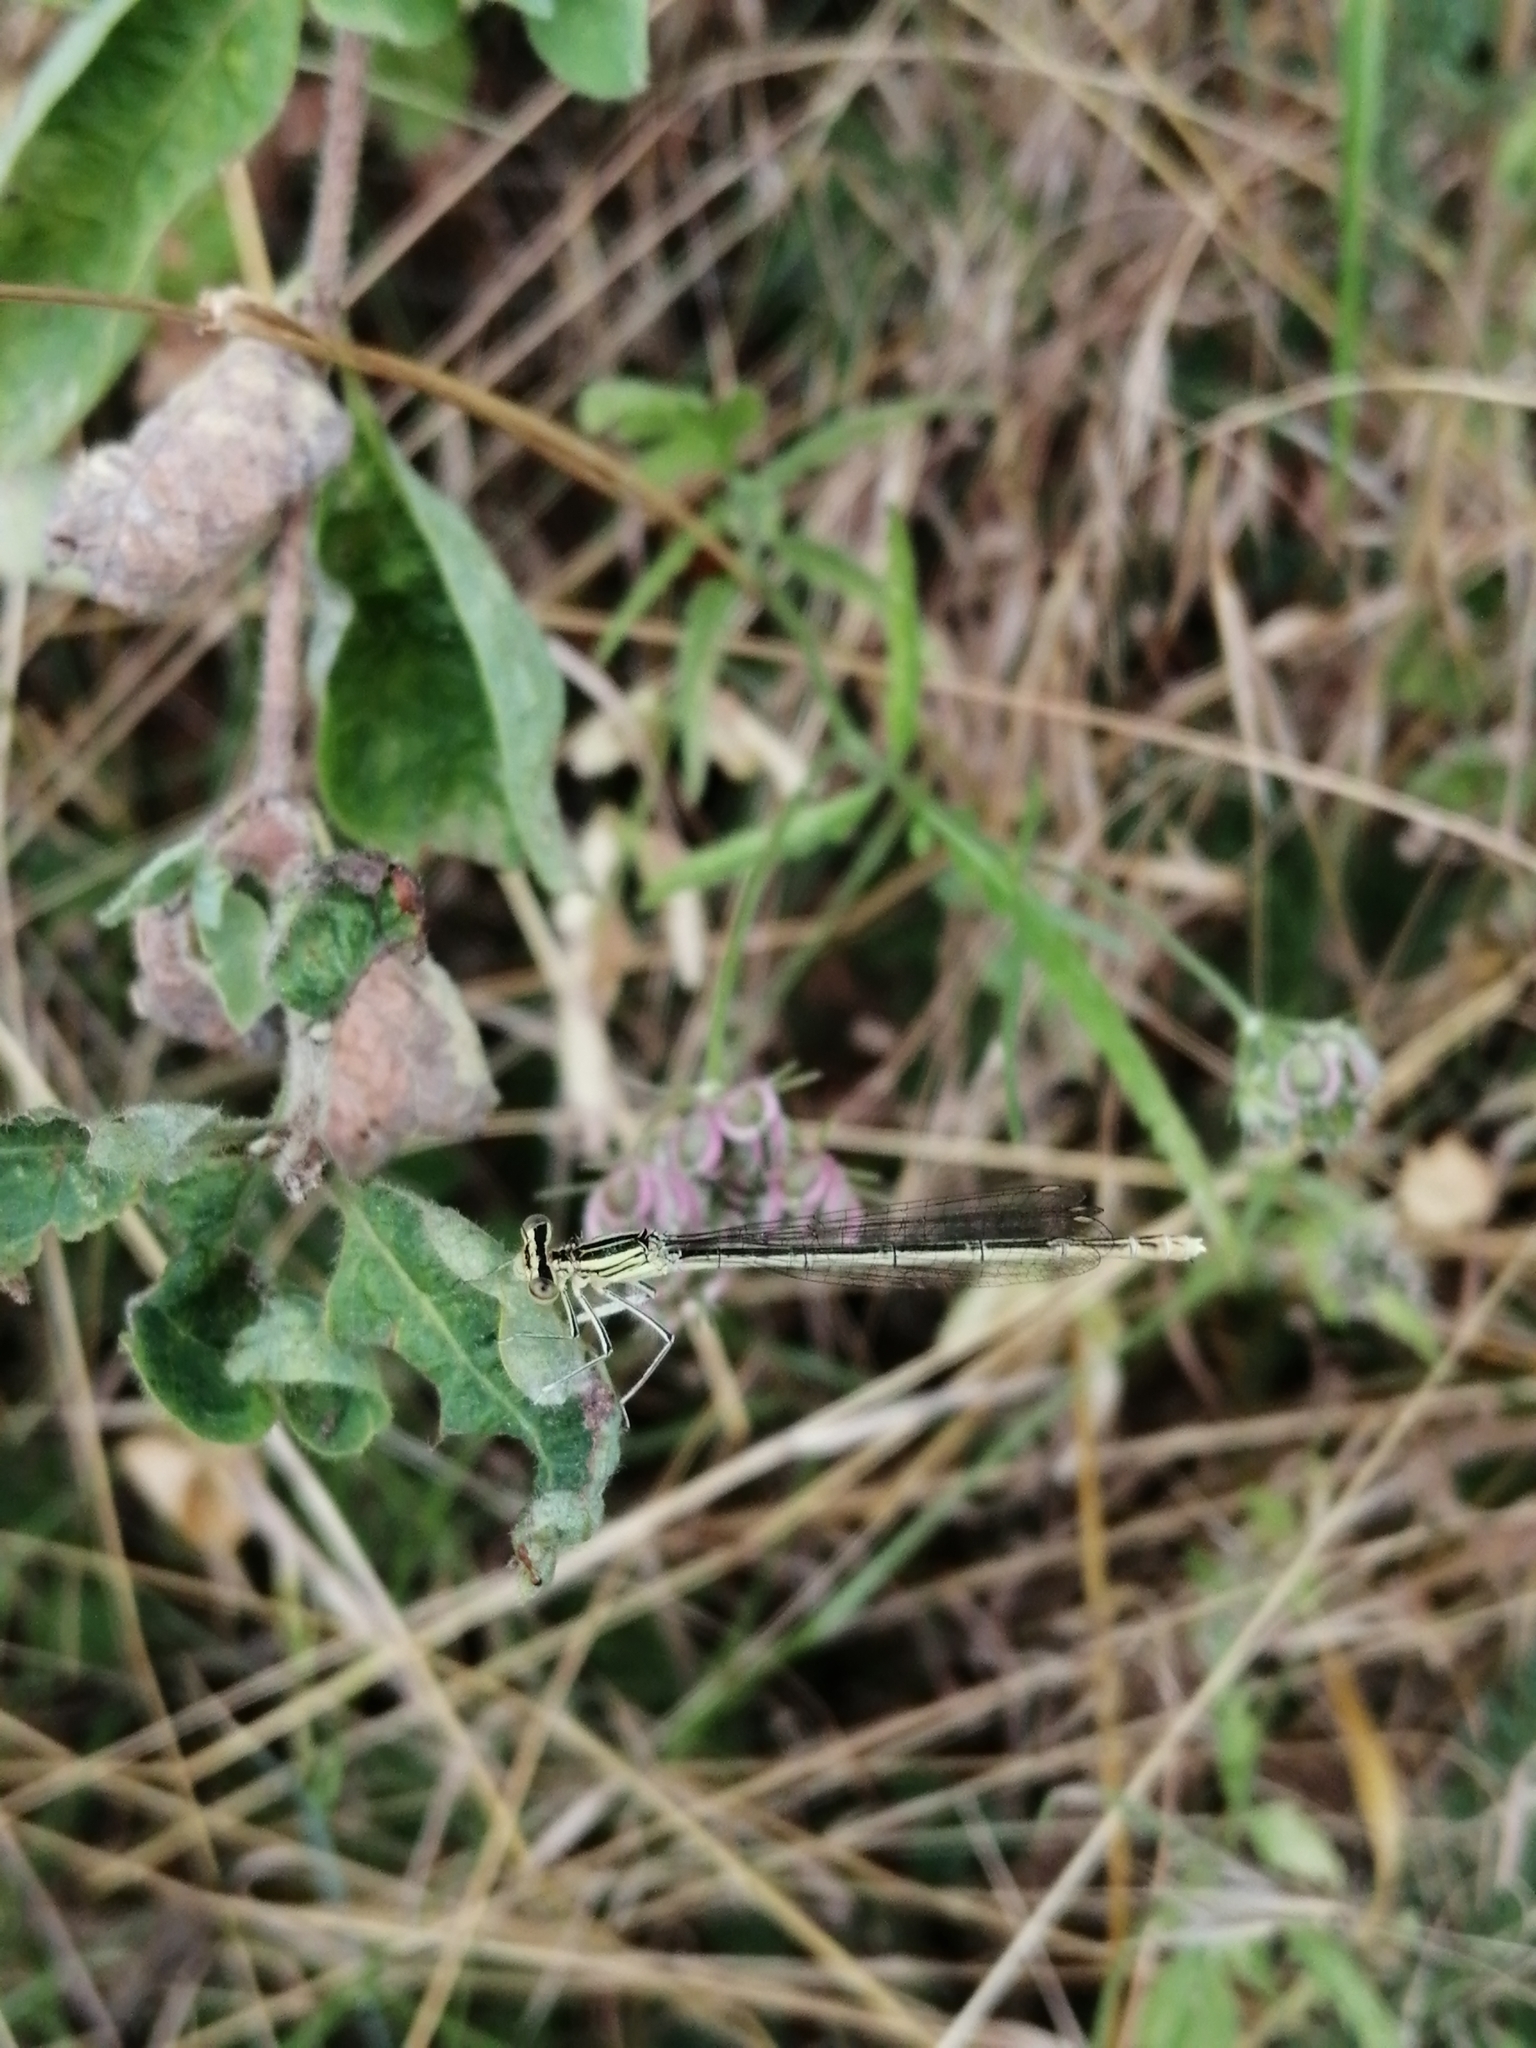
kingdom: Animalia
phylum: Arthropoda
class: Insecta
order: Odonata
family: Platycnemididae
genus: Platycnemis
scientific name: Platycnemis pennipes
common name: White-legged damselfly
